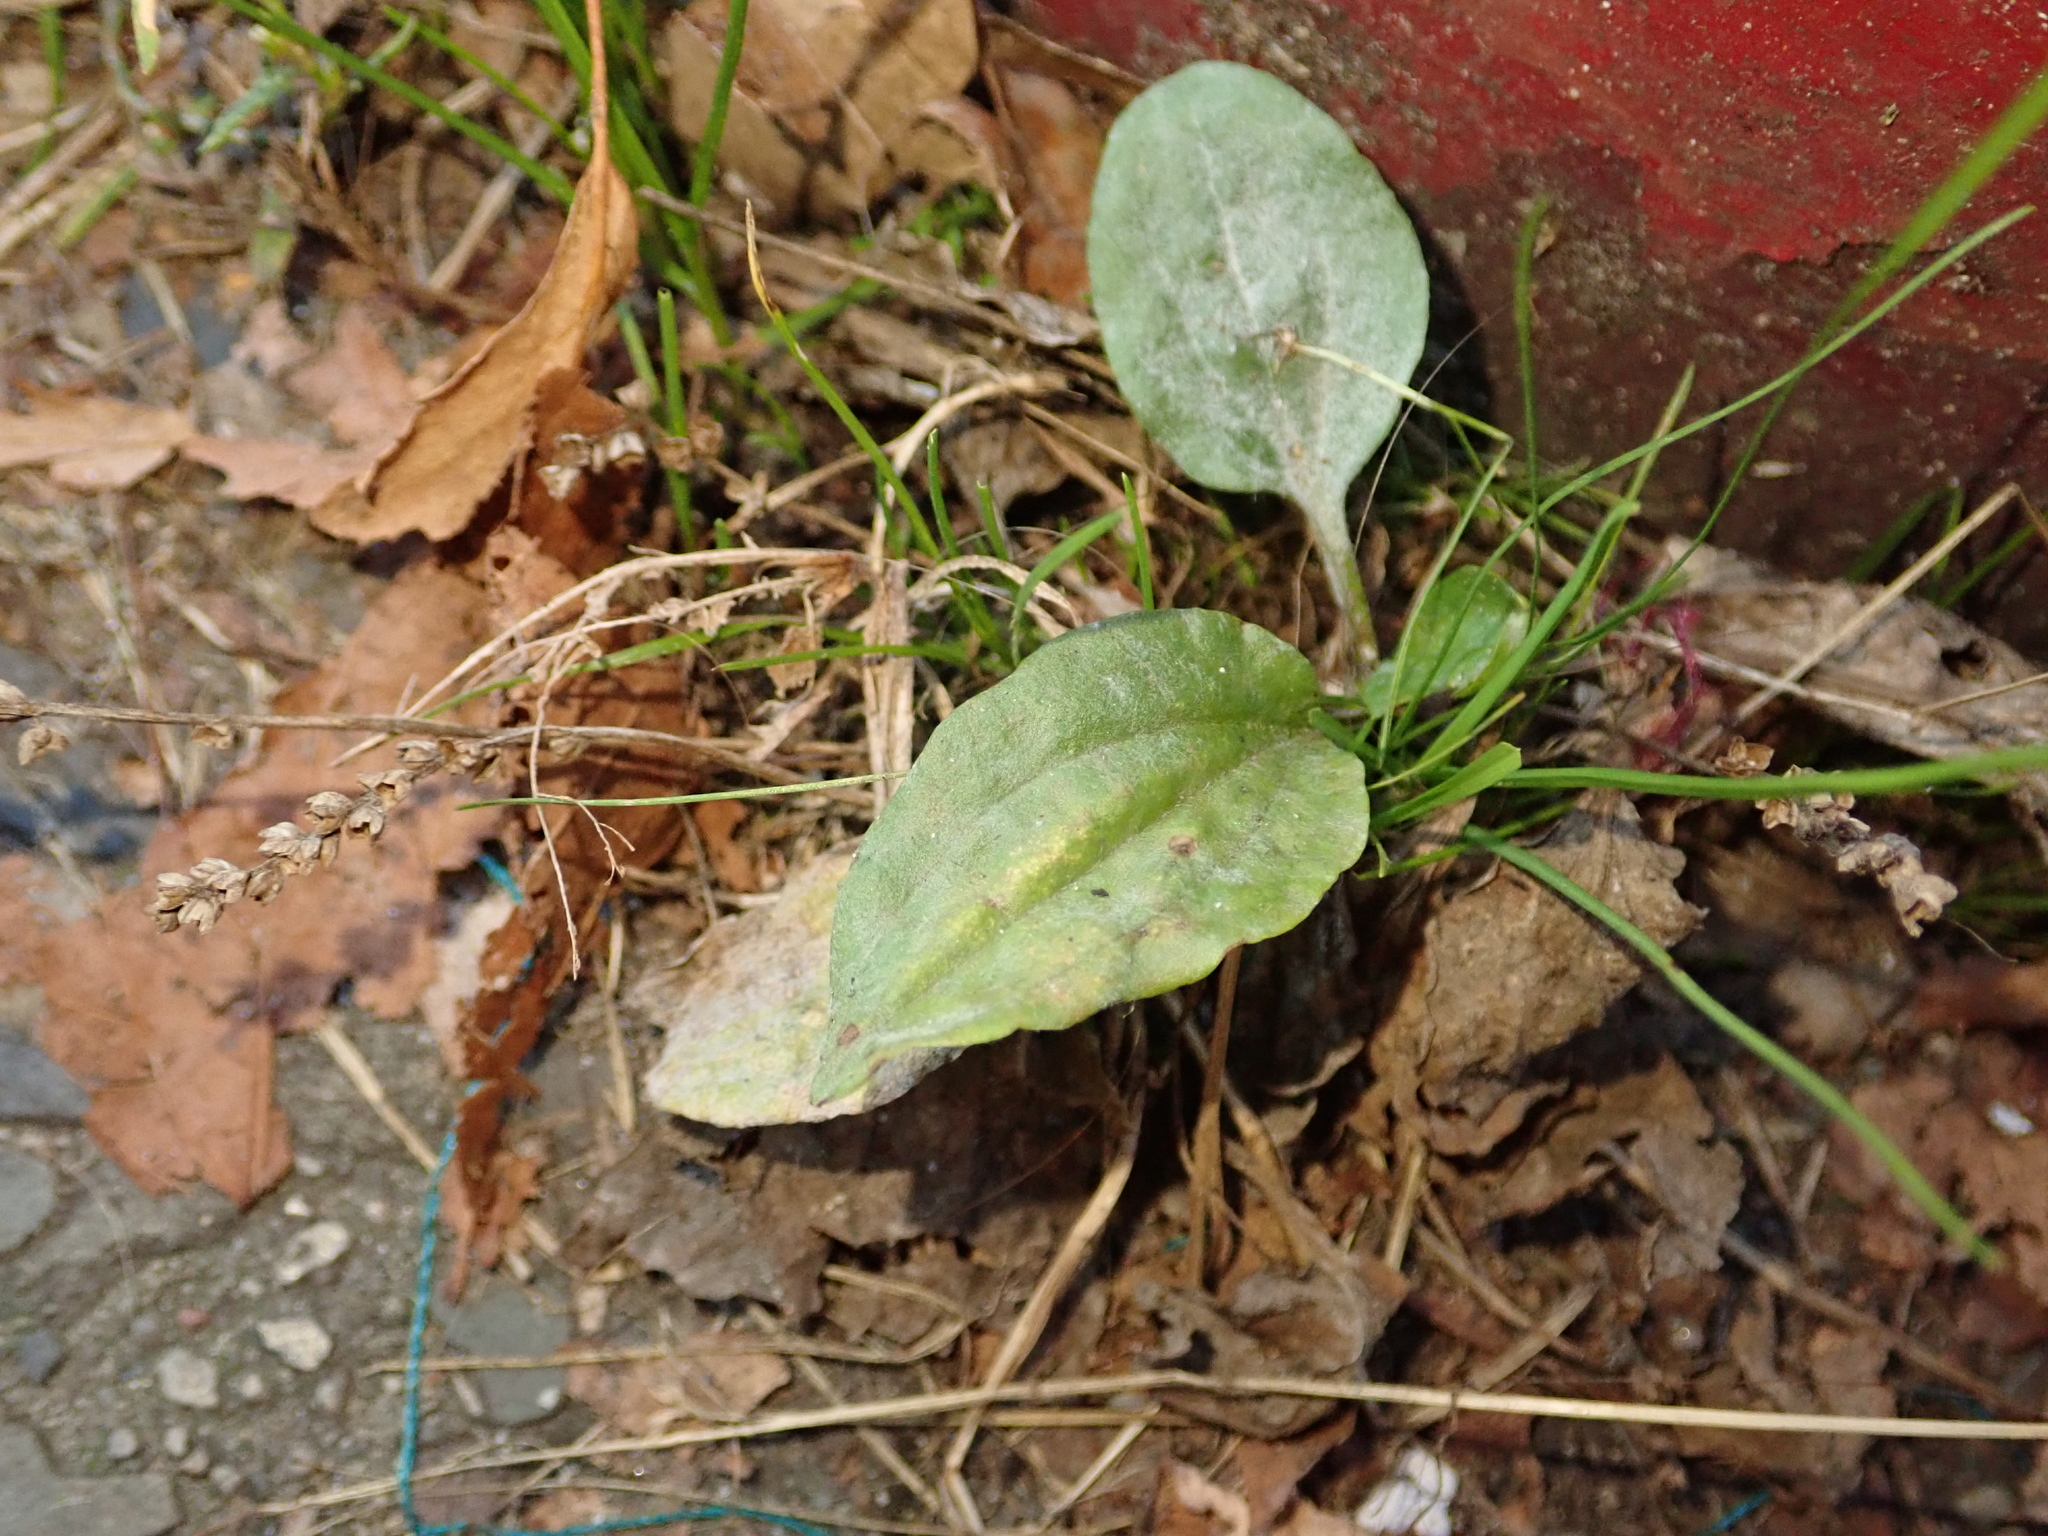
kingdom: Plantae
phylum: Tracheophyta
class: Magnoliopsida
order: Lamiales
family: Plantaginaceae
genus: Plantago
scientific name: Plantago major
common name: Common plantain
